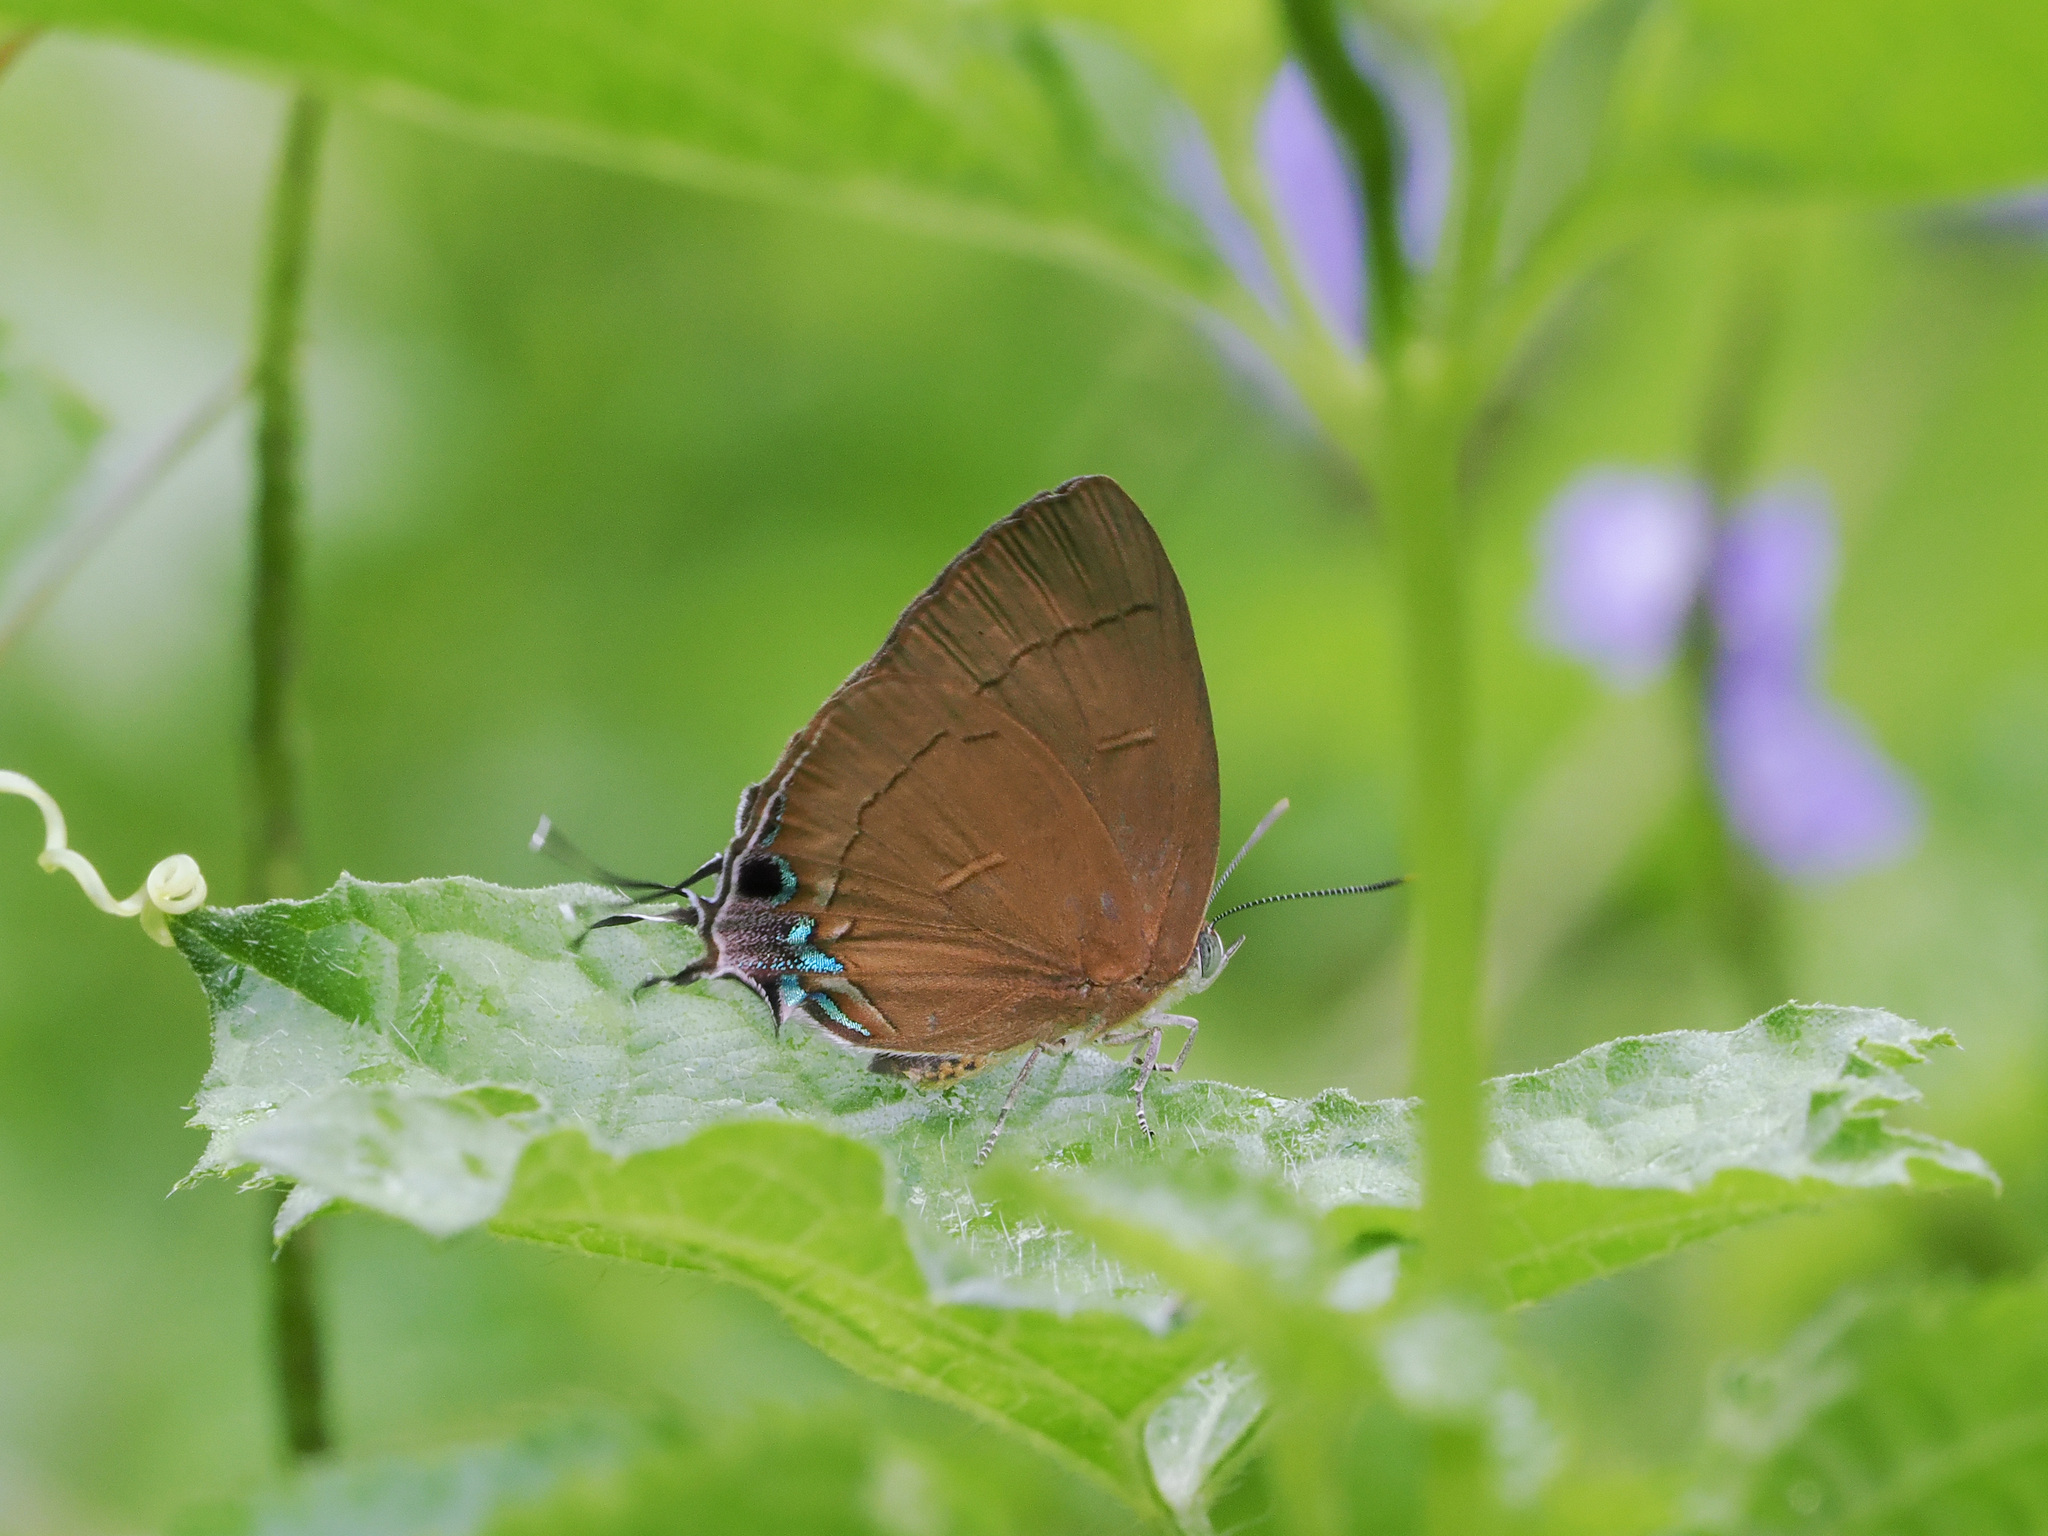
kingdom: Animalia
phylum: Arthropoda
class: Insecta
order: Lepidoptera
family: Lycaenidae
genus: Remelana
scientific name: Remelana jangala
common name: Chocolate royal
